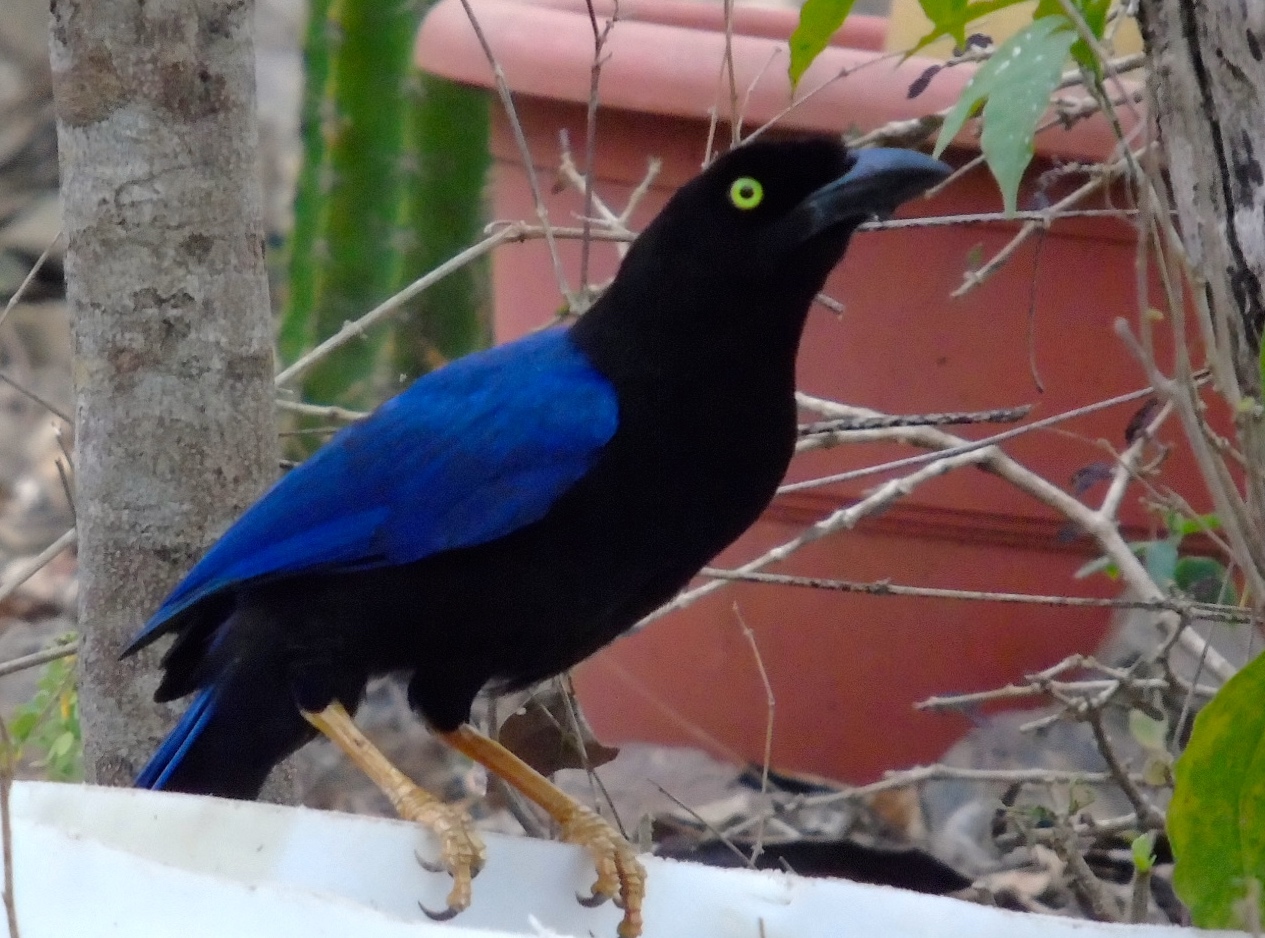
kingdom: Animalia
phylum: Chordata
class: Aves
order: Passeriformes
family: Corvidae
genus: Cyanocorax
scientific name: Cyanocorax beecheii
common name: Purplish-backed jay
